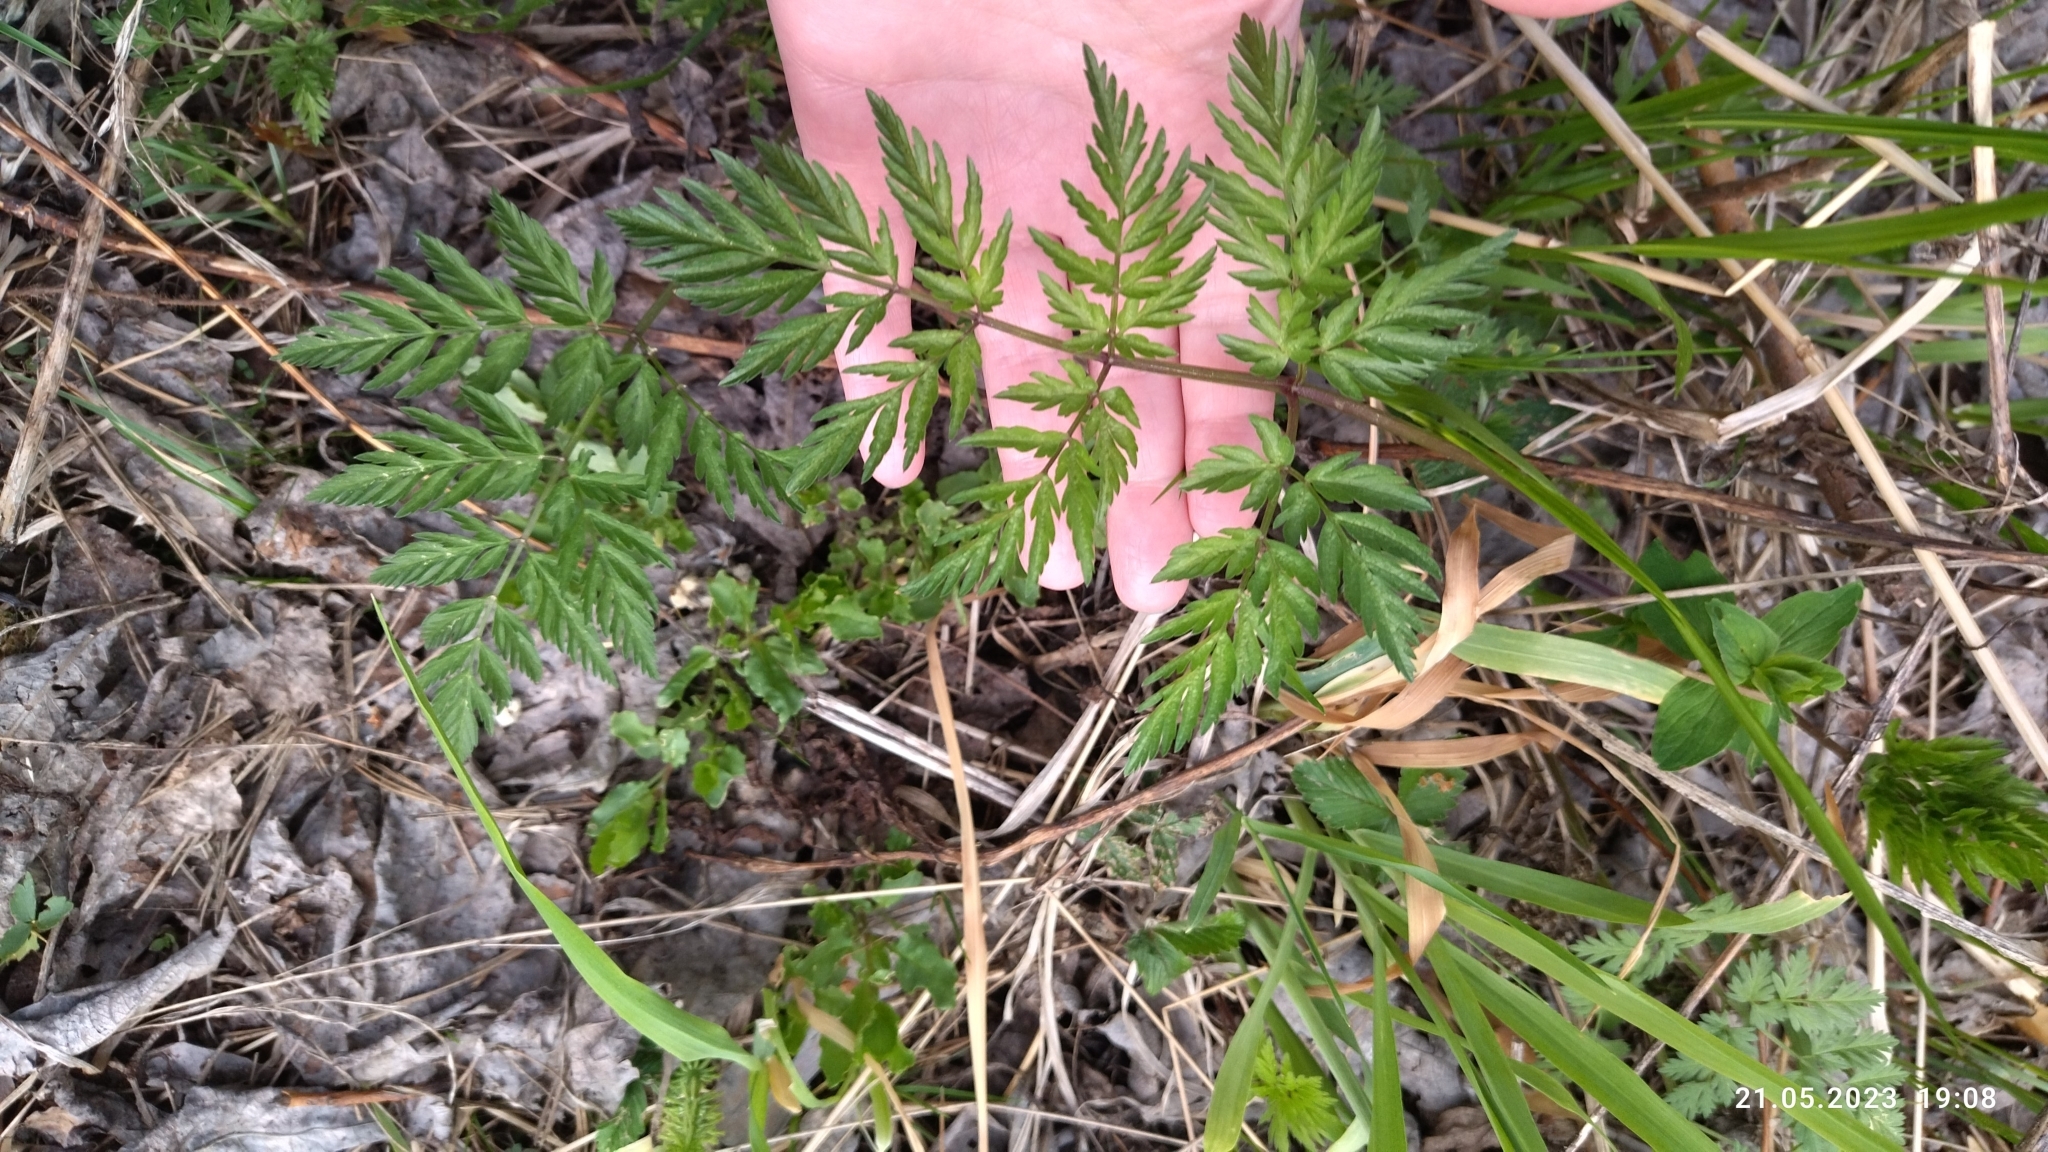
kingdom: Plantae
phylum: Tracheophyta
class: Magnoliopsida
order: Apiales
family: Apiaceae
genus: Anthriscus
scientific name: Anthriscus sylvestris
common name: Cow parsley
